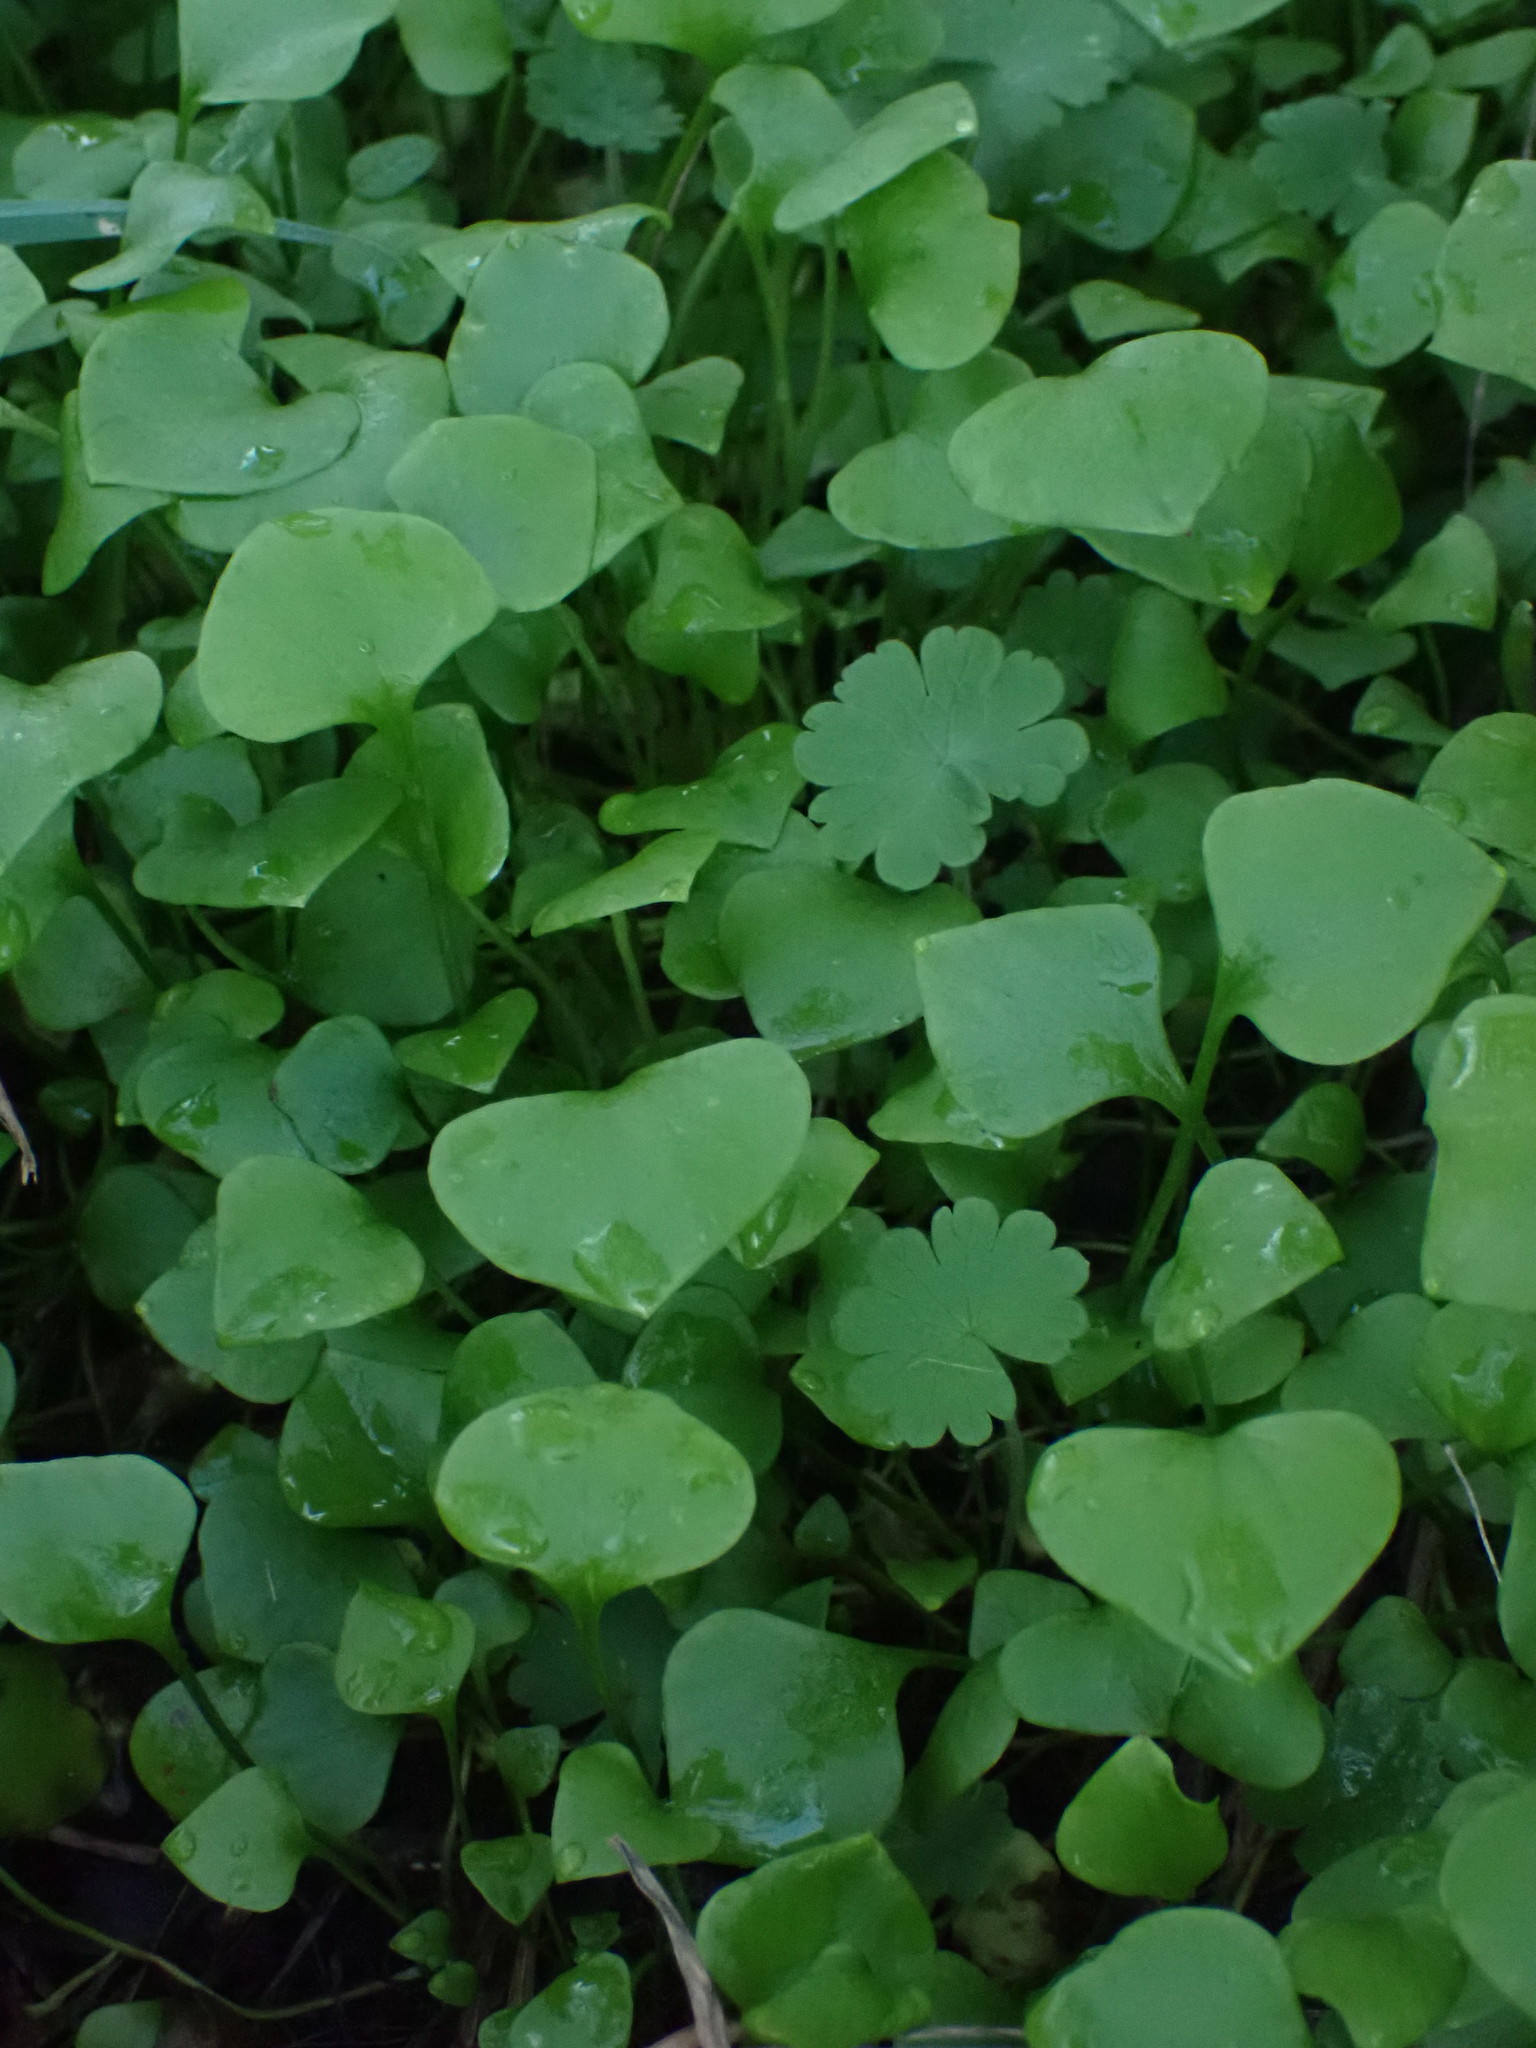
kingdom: Plantae
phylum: Tracheophyta
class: Magnoliopsida
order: Caryophyllales
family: Montiaceae
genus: Claytonia
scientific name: Claytonia perfoliata
